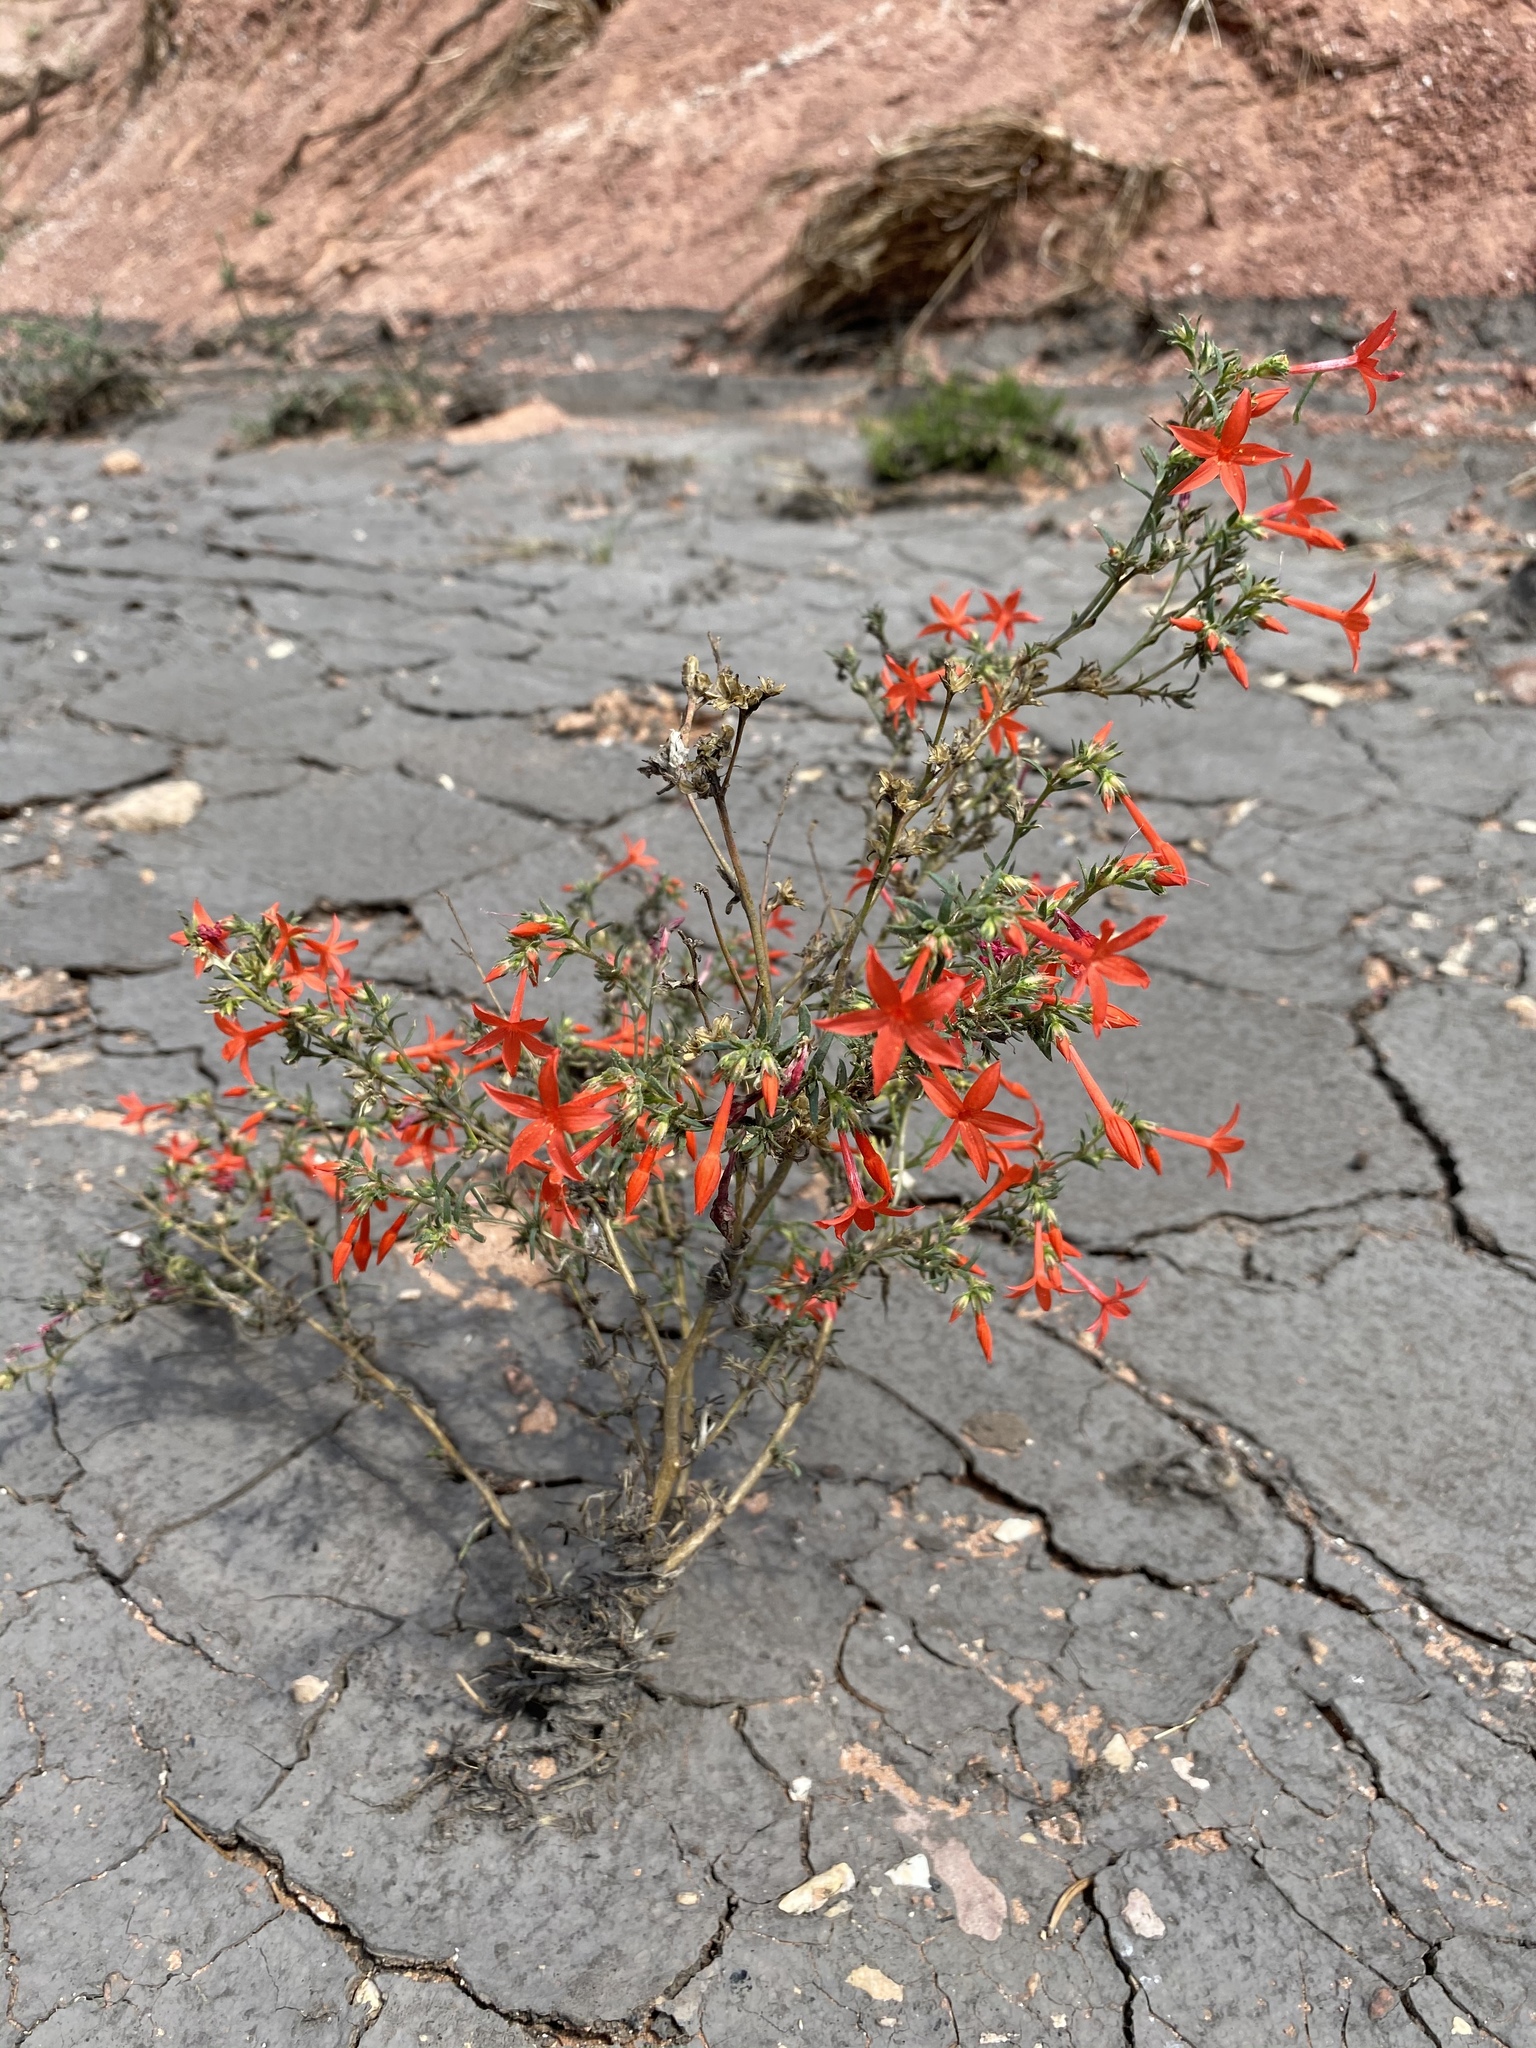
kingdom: Plantae
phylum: Tracheophyta
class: Magnoliopsida
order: Ericales
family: Polemoniaceae
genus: Ipomopsis
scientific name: Ipomopsis arizonica
